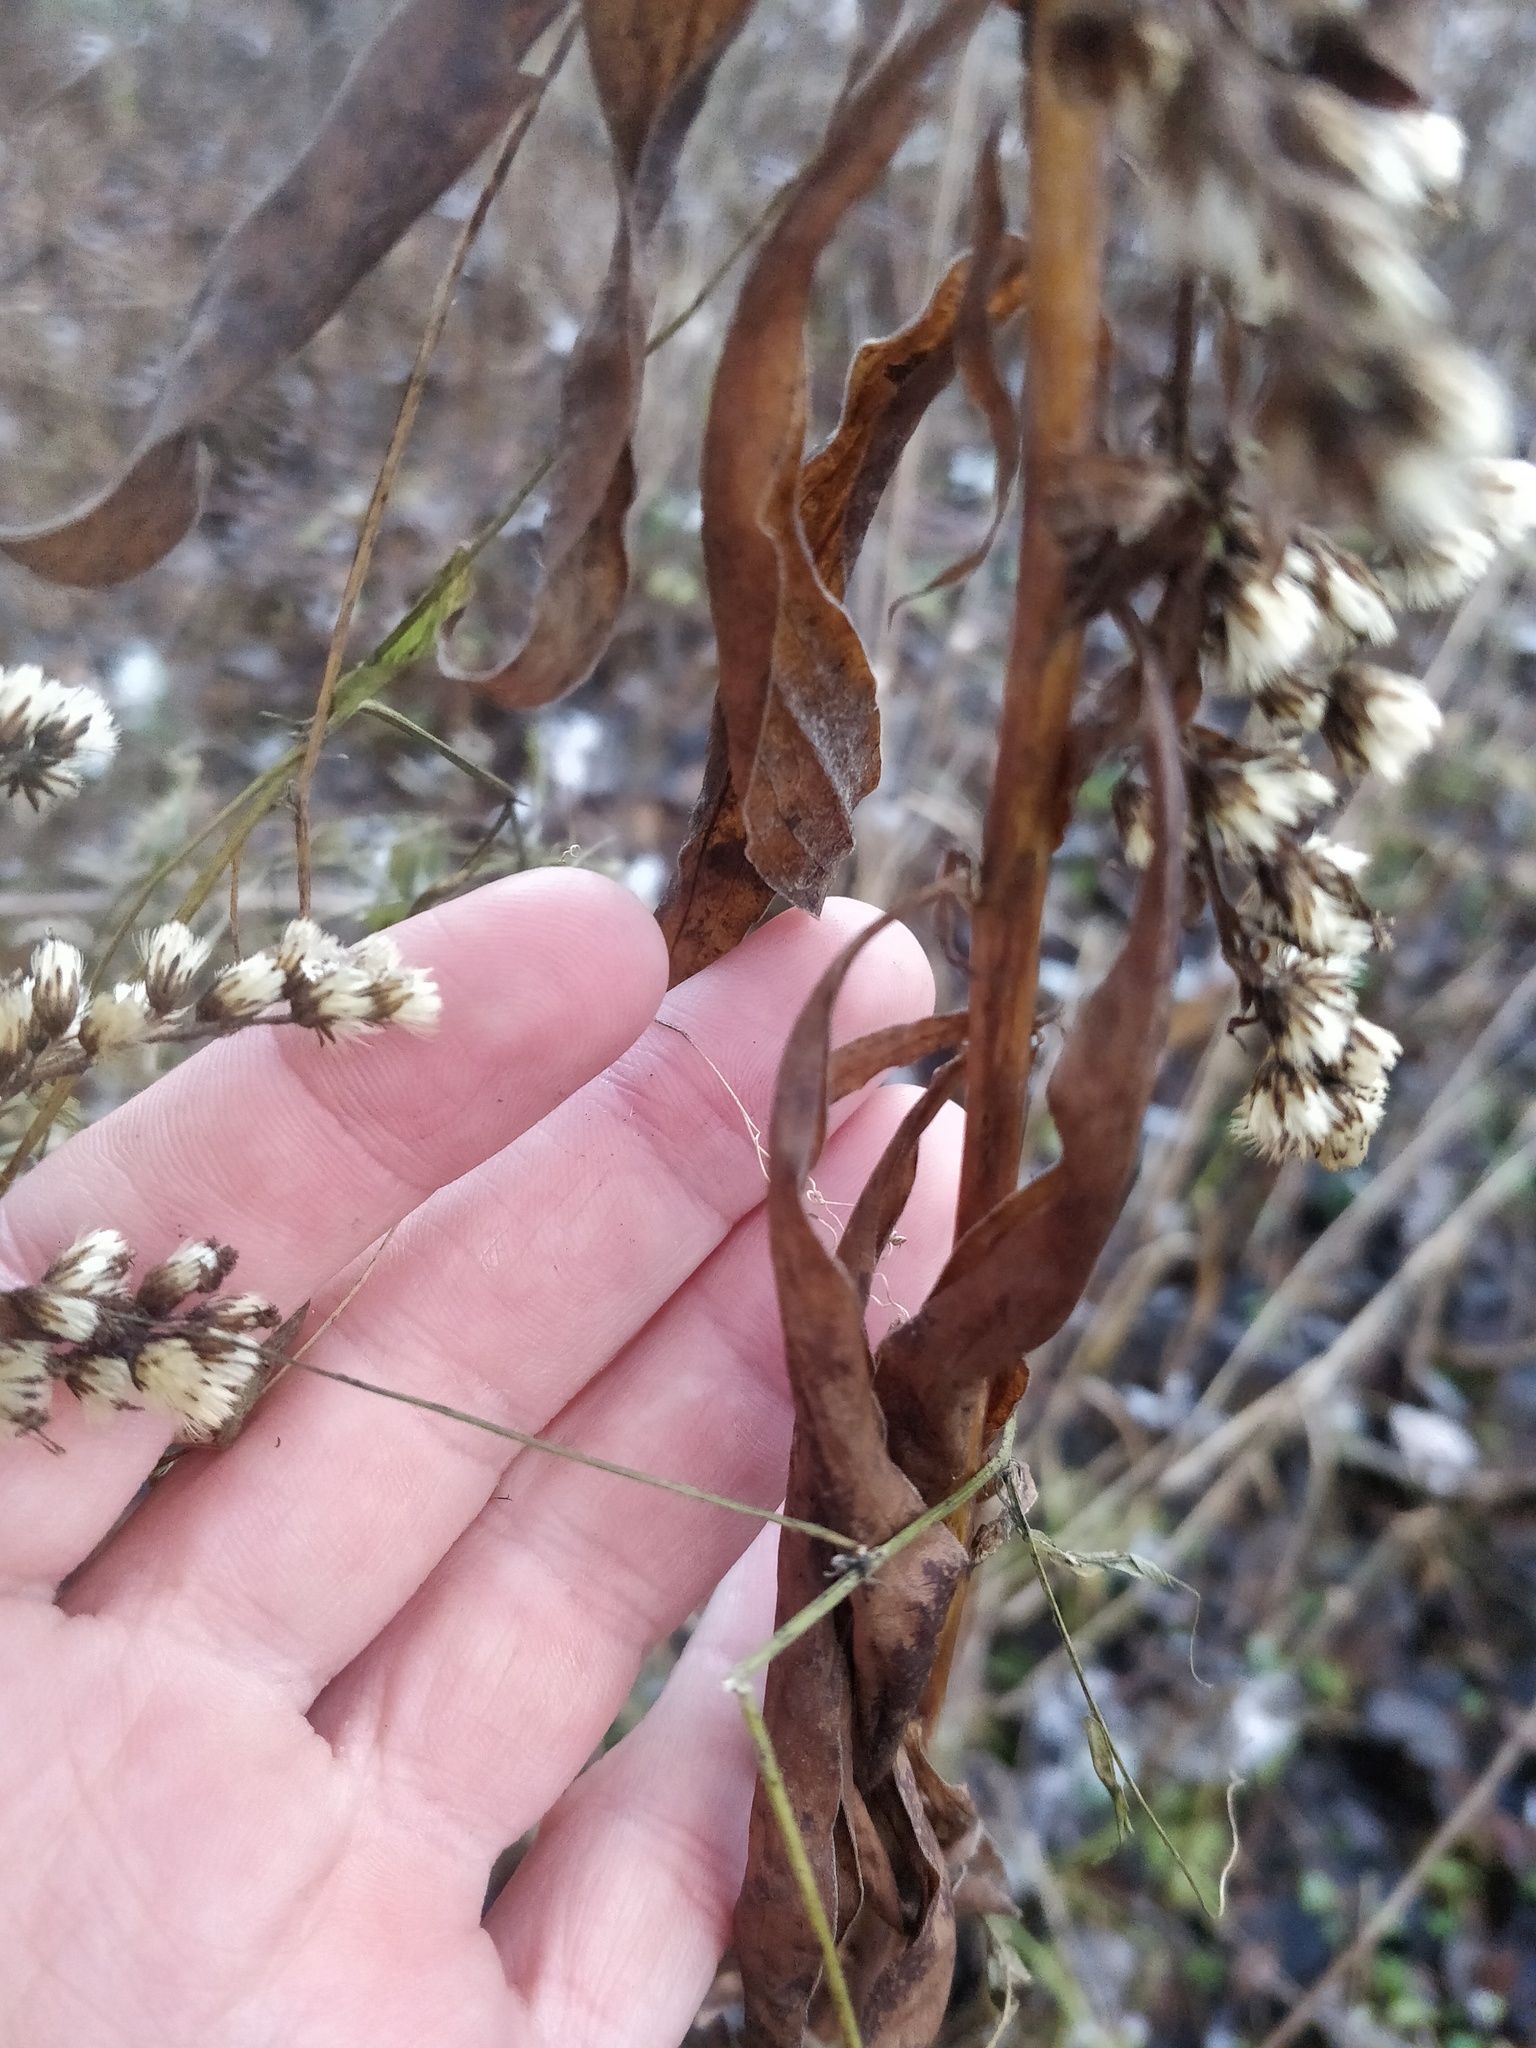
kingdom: Plantae
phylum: Tracheophyta
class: Magnoliopsida
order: Asterales
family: Asteraceae
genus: Solidago
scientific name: Solidago gigantea
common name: Giant goldenrod
